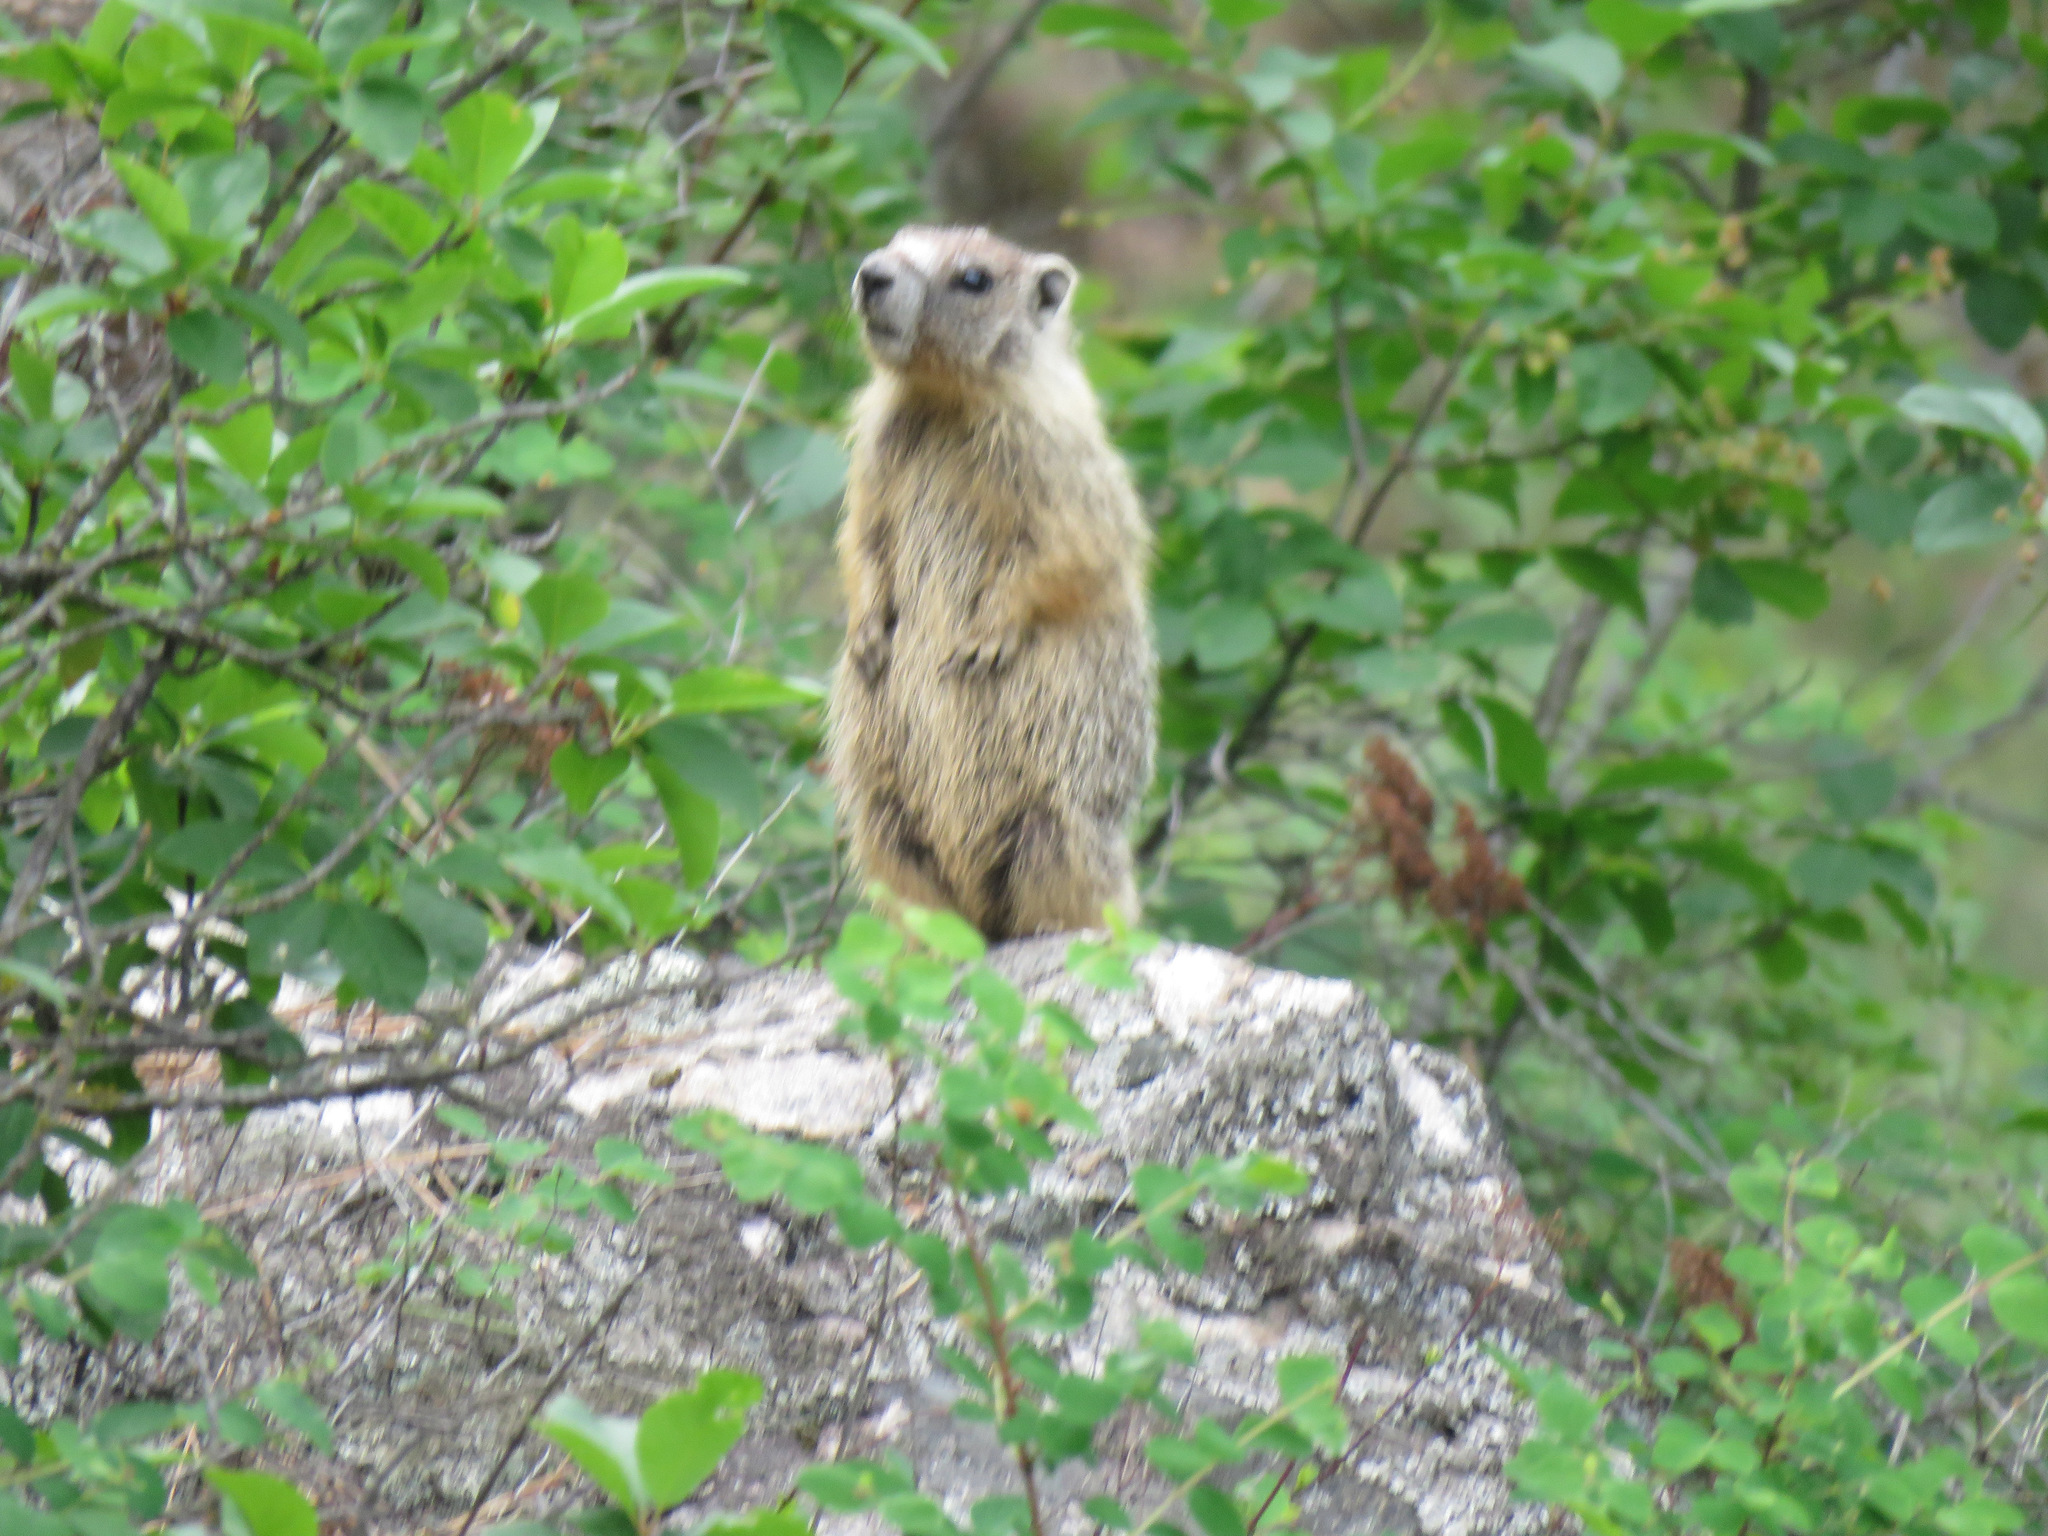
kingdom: Animalia
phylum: Chordata
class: Mammalia
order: Rodentia
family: Sciuridae
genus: Marmota
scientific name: Marmota flaviventris
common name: Yellow-bellied marmot
